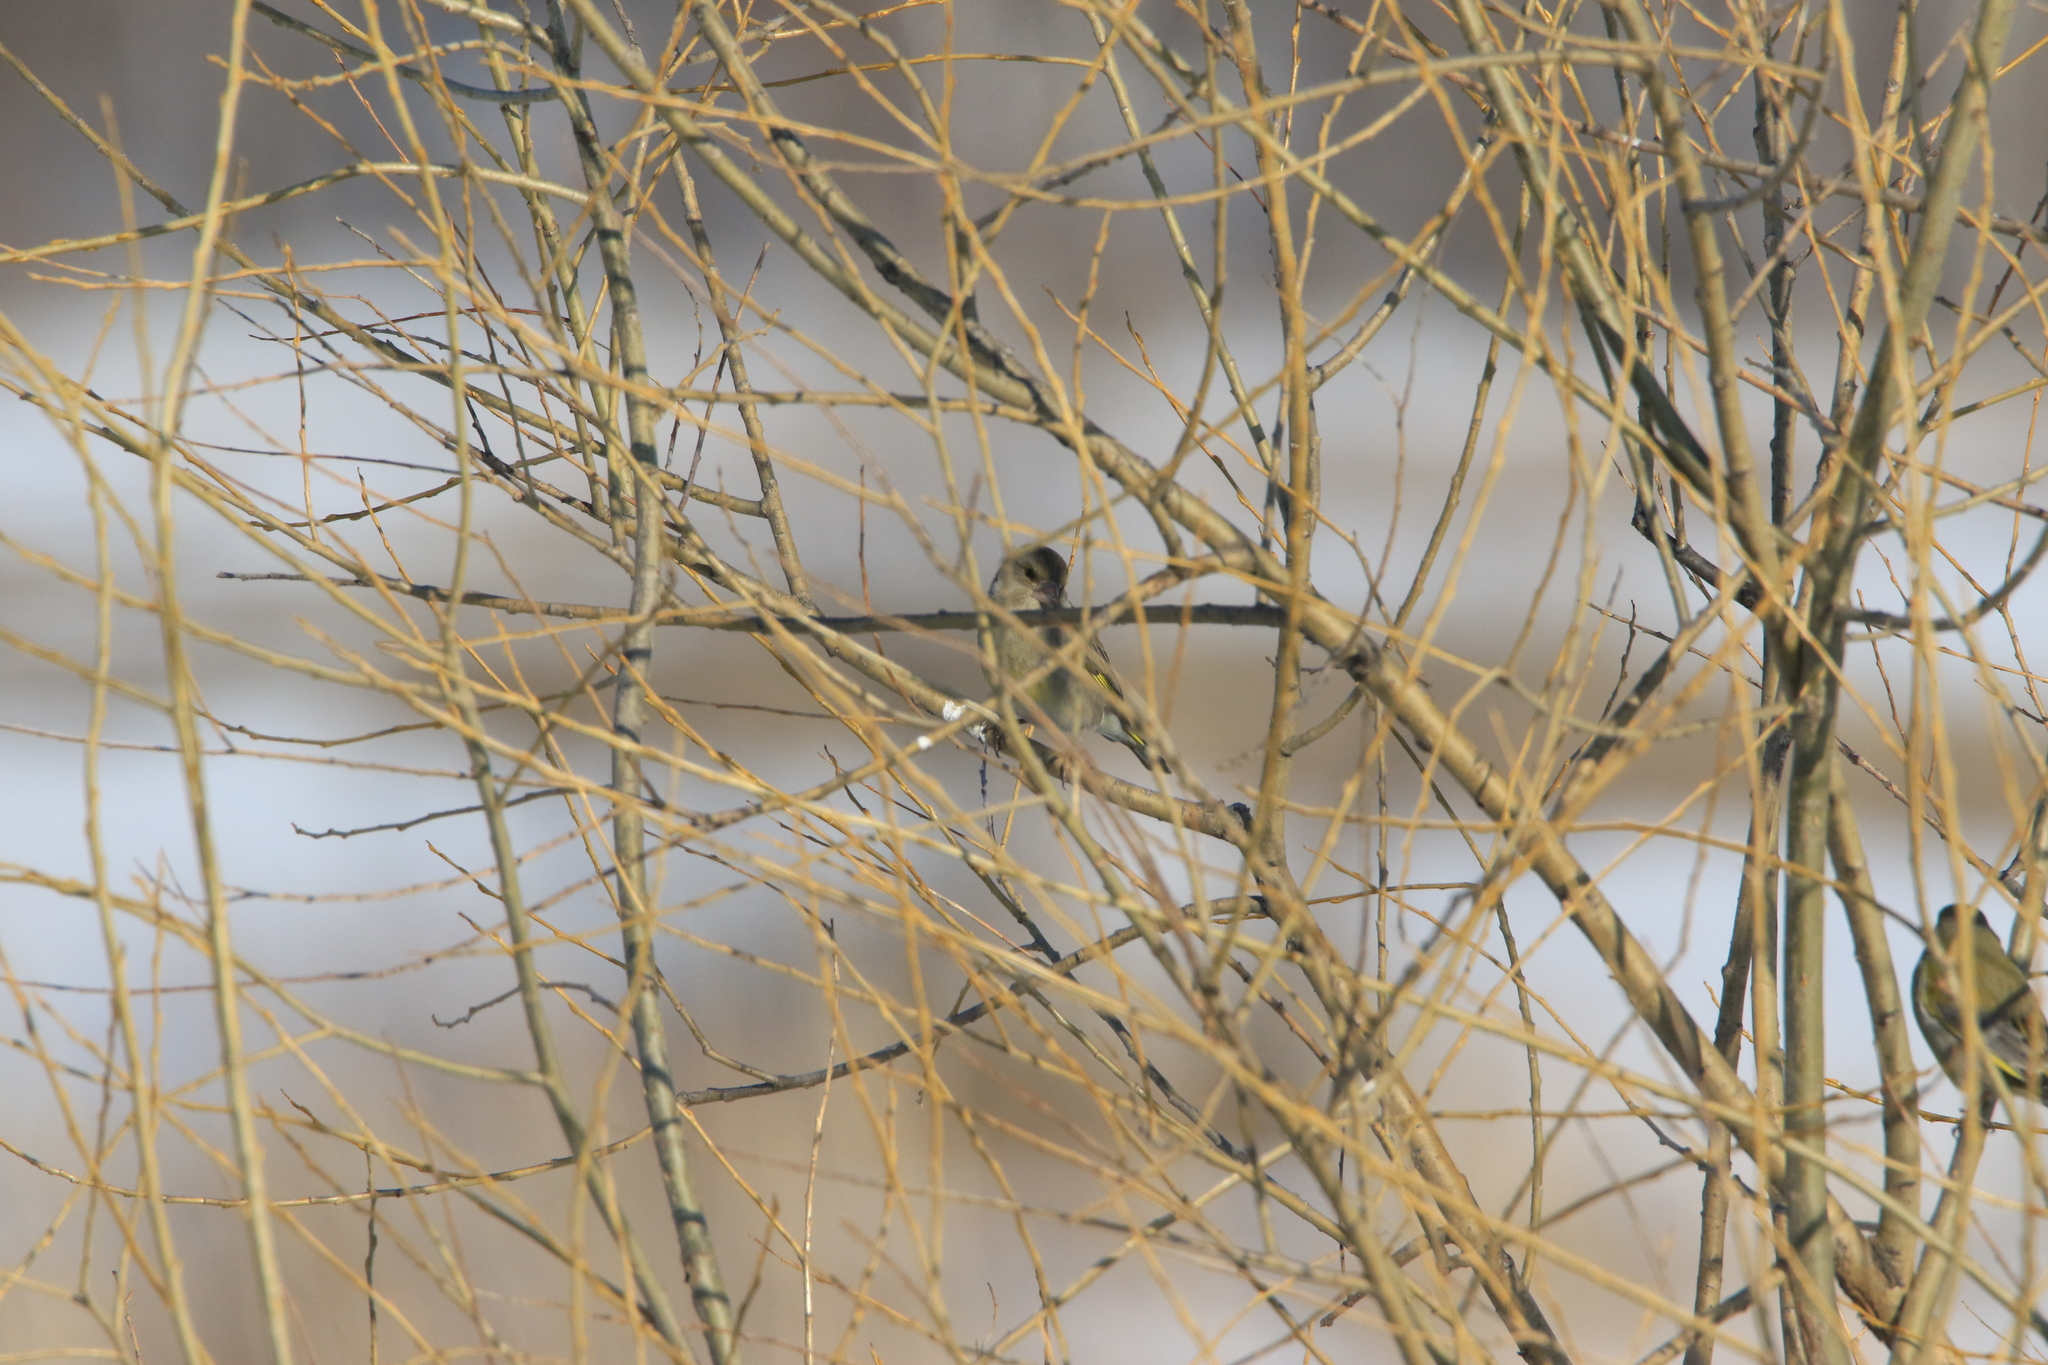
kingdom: Plantae
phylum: Tracheophyta
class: Liliopsida
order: Poales
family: Poaceae
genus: Chloris
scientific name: Chloris chloris
